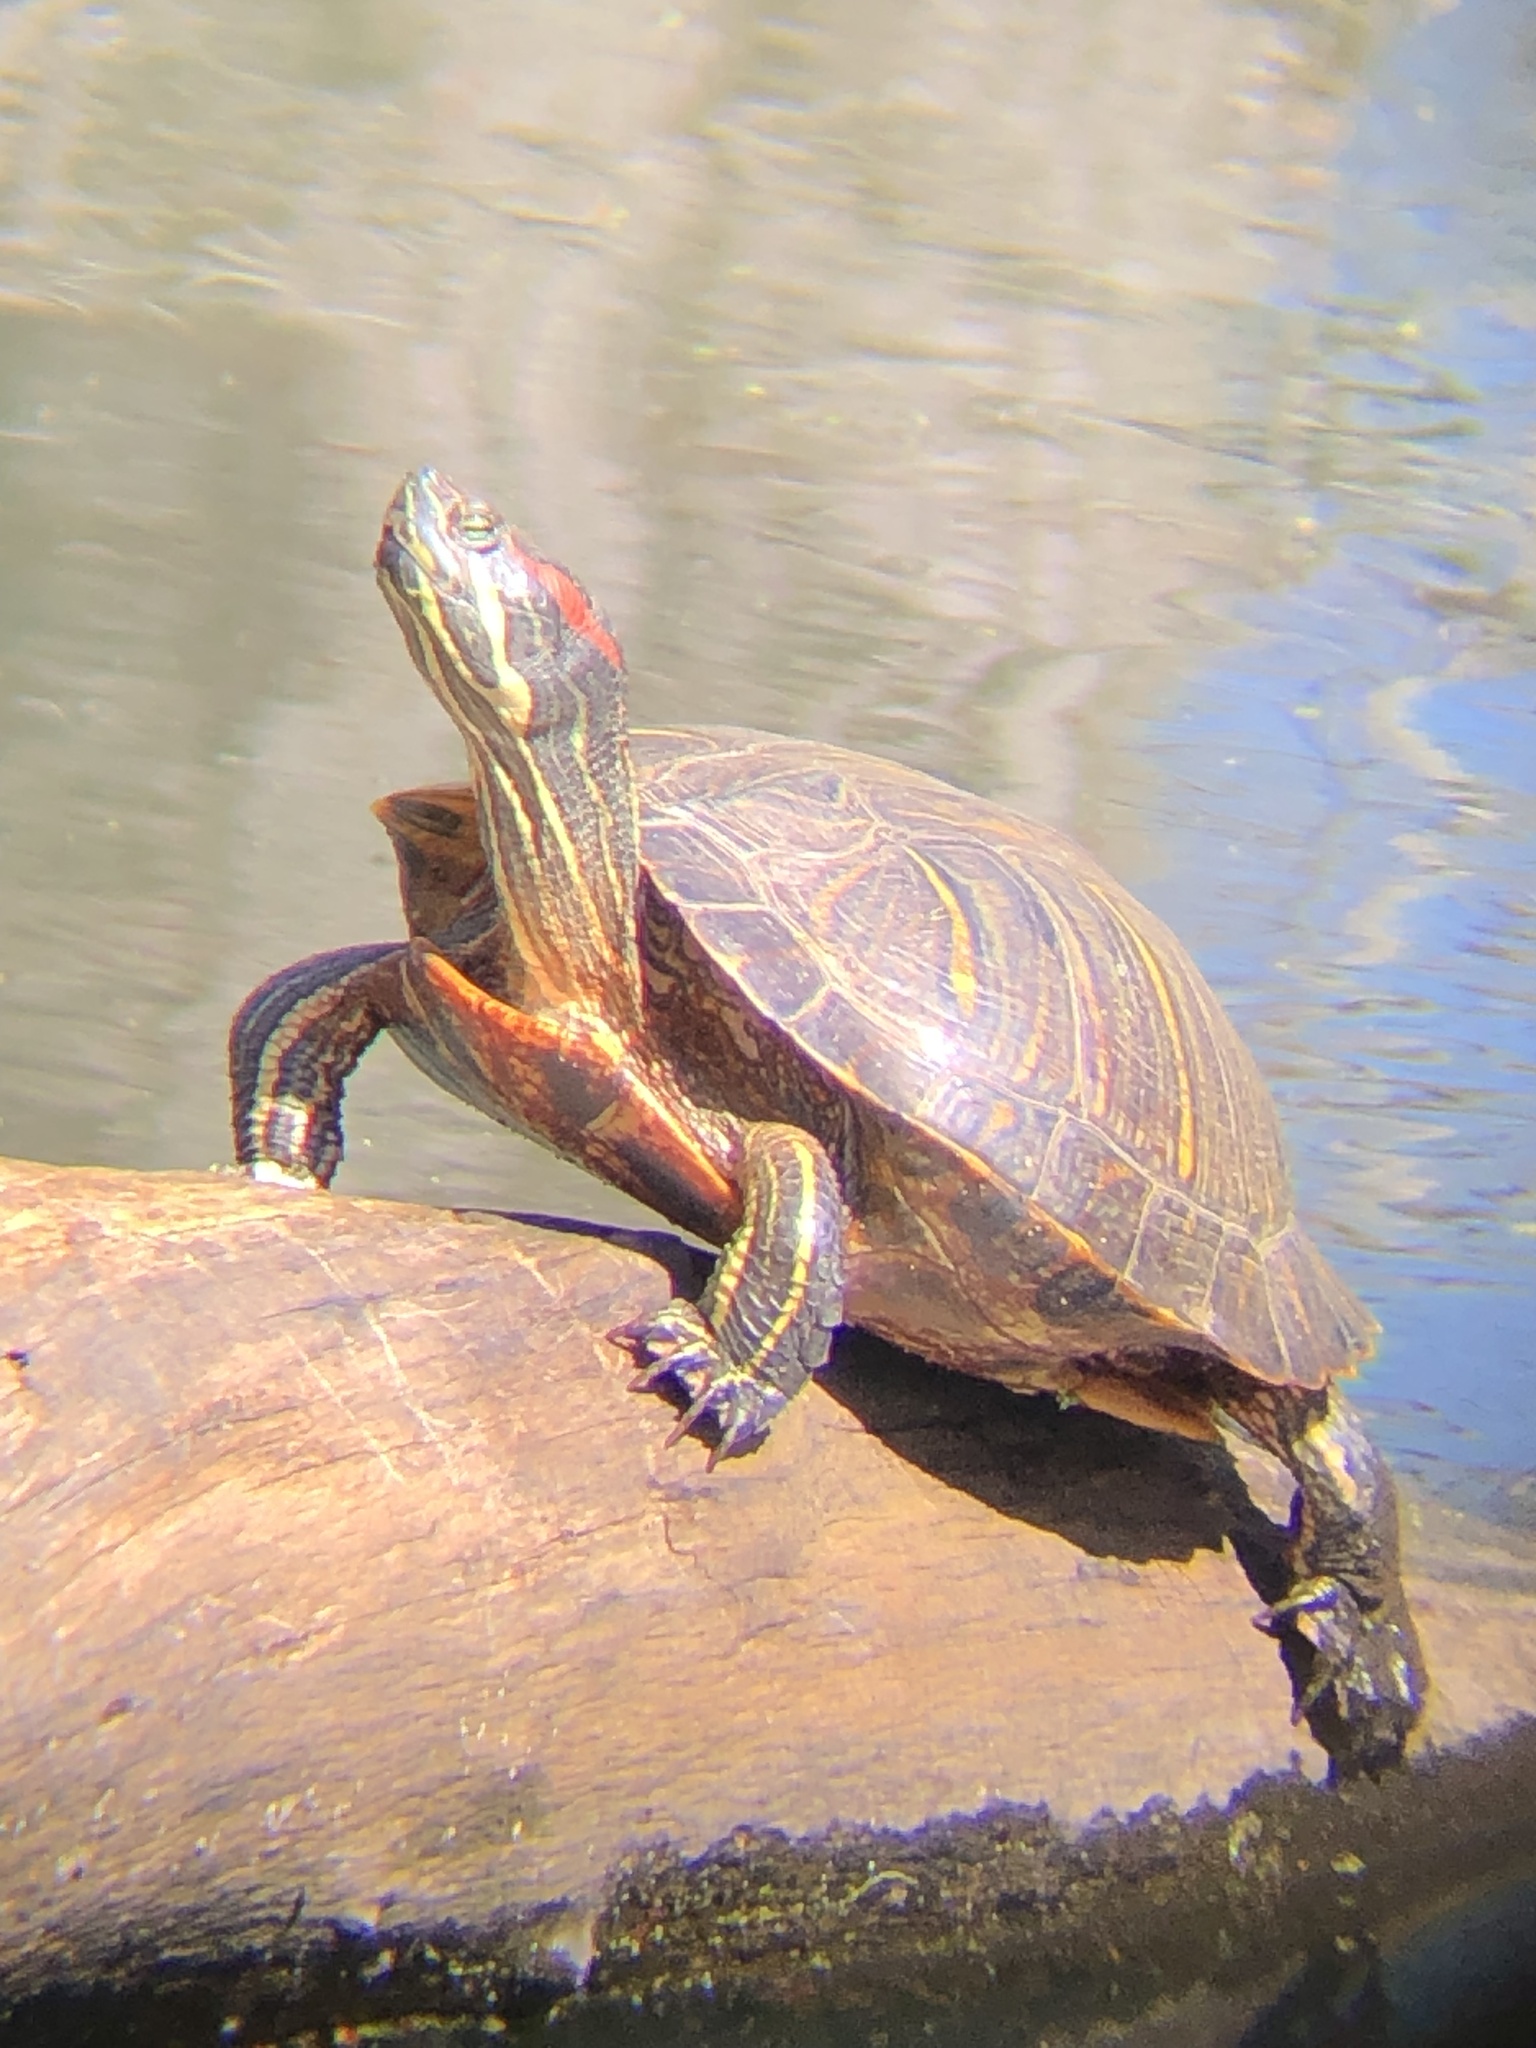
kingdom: Animalia
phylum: Chordata
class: Testudines
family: Emydidae
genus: Trachemys
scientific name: Trachemys scripta
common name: Slider
